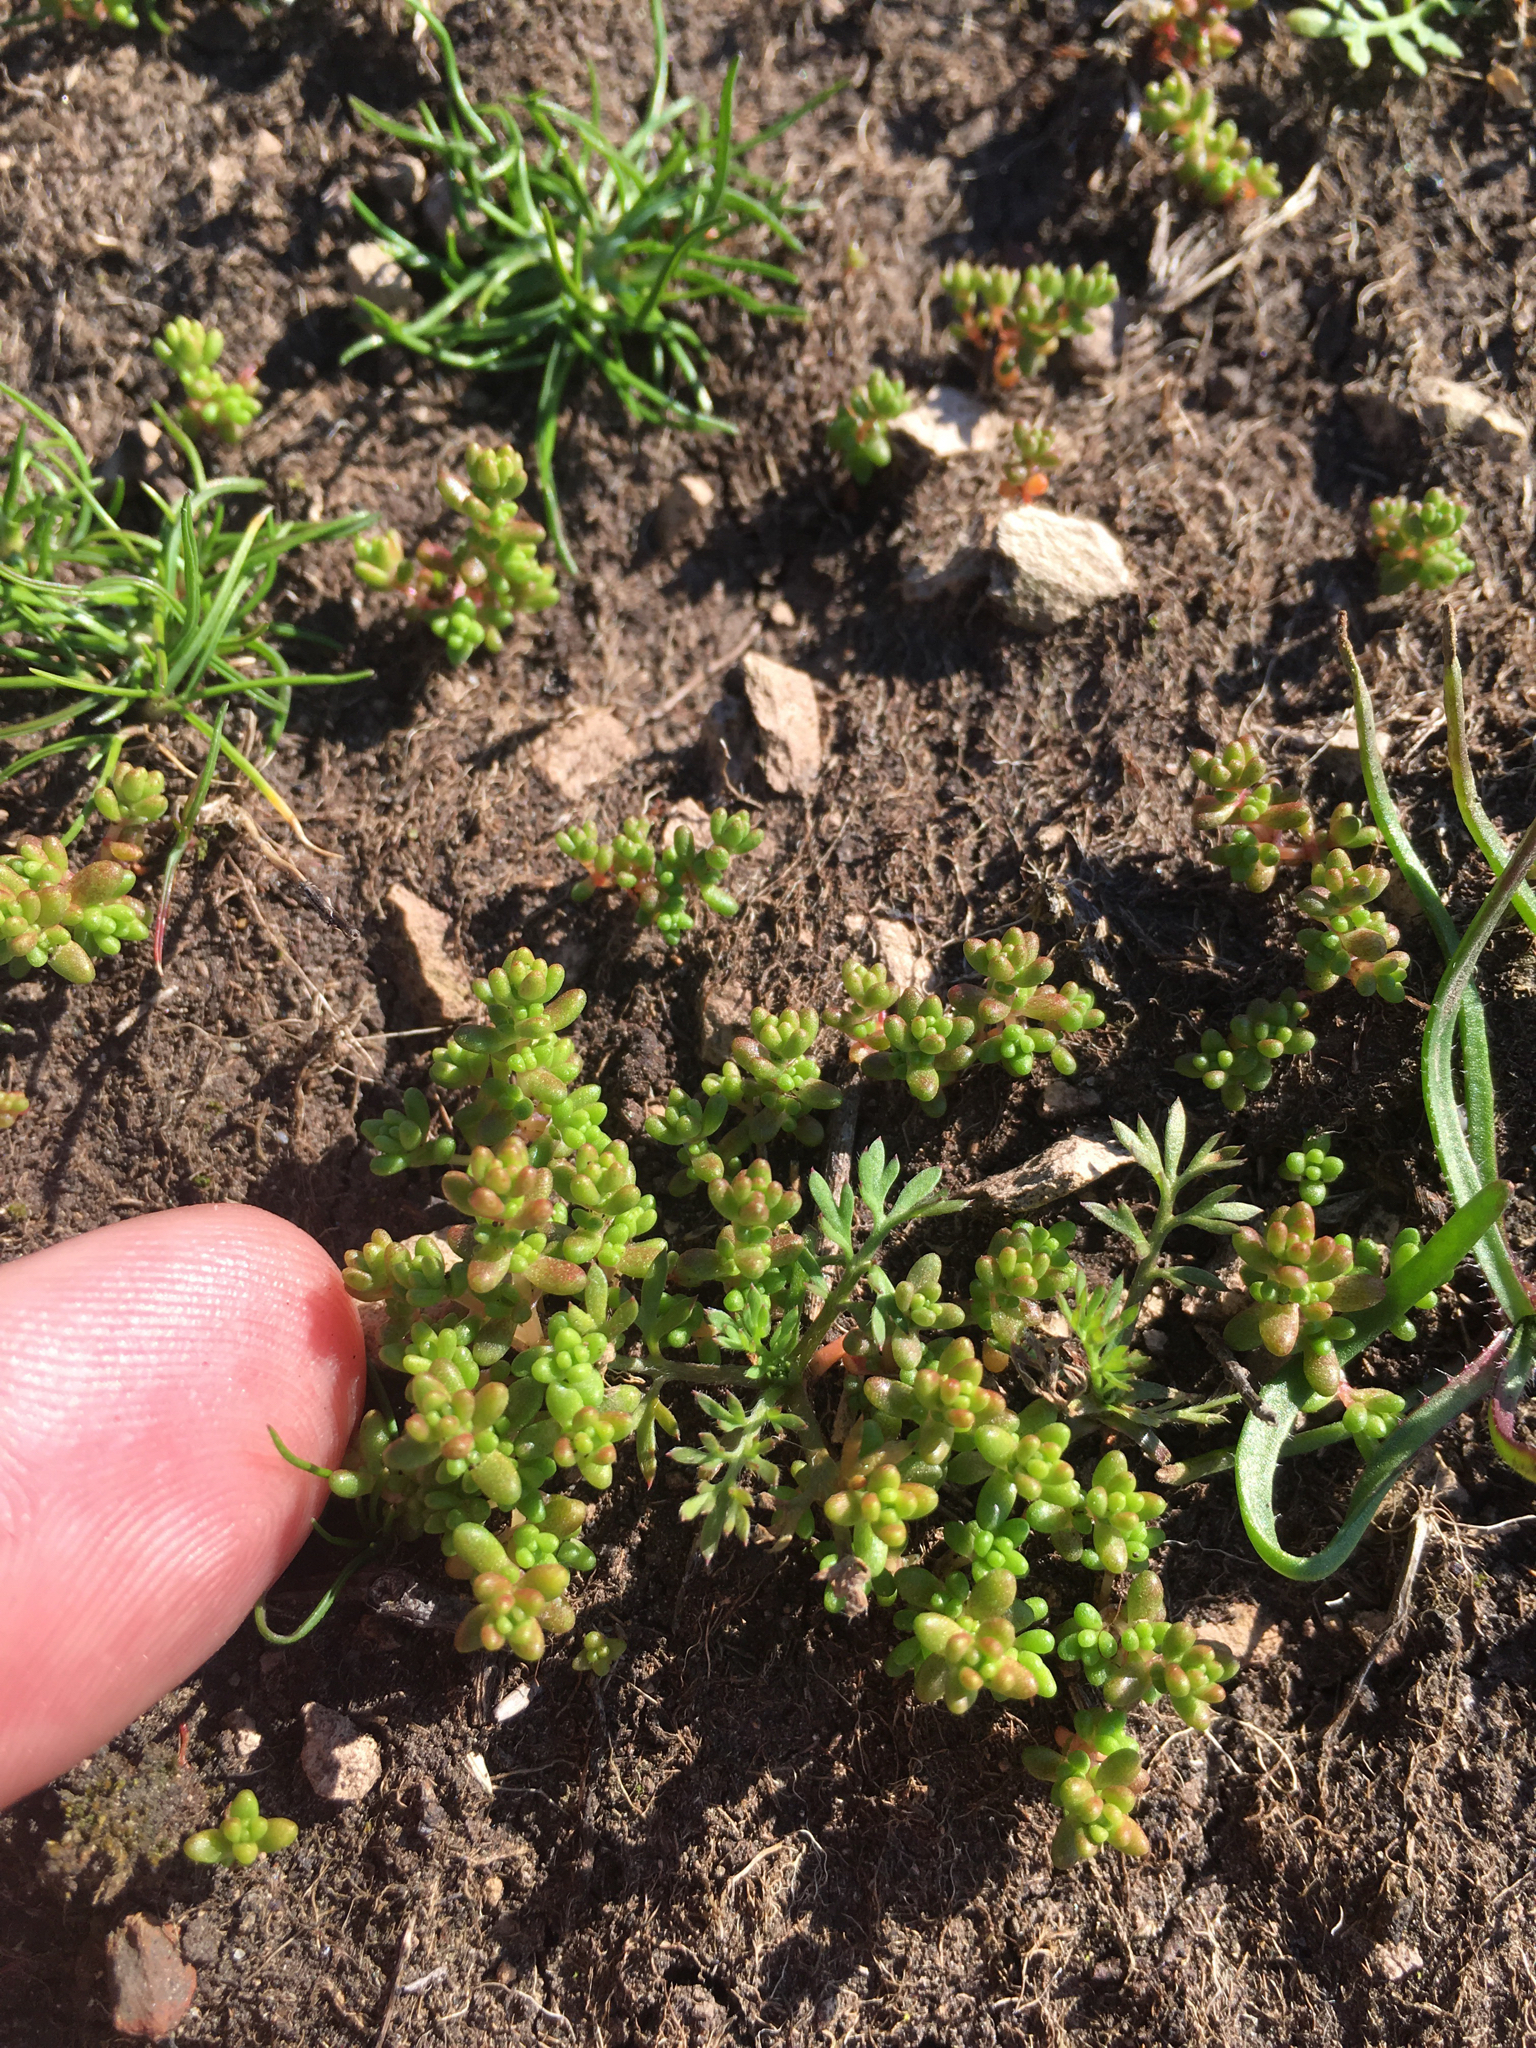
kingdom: Plantae
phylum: Tracheophyta
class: Magnoliopsida
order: Saxifragales
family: Crassulaceae
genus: Crassula
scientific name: Crassula connata
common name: Erect pygmyweed
